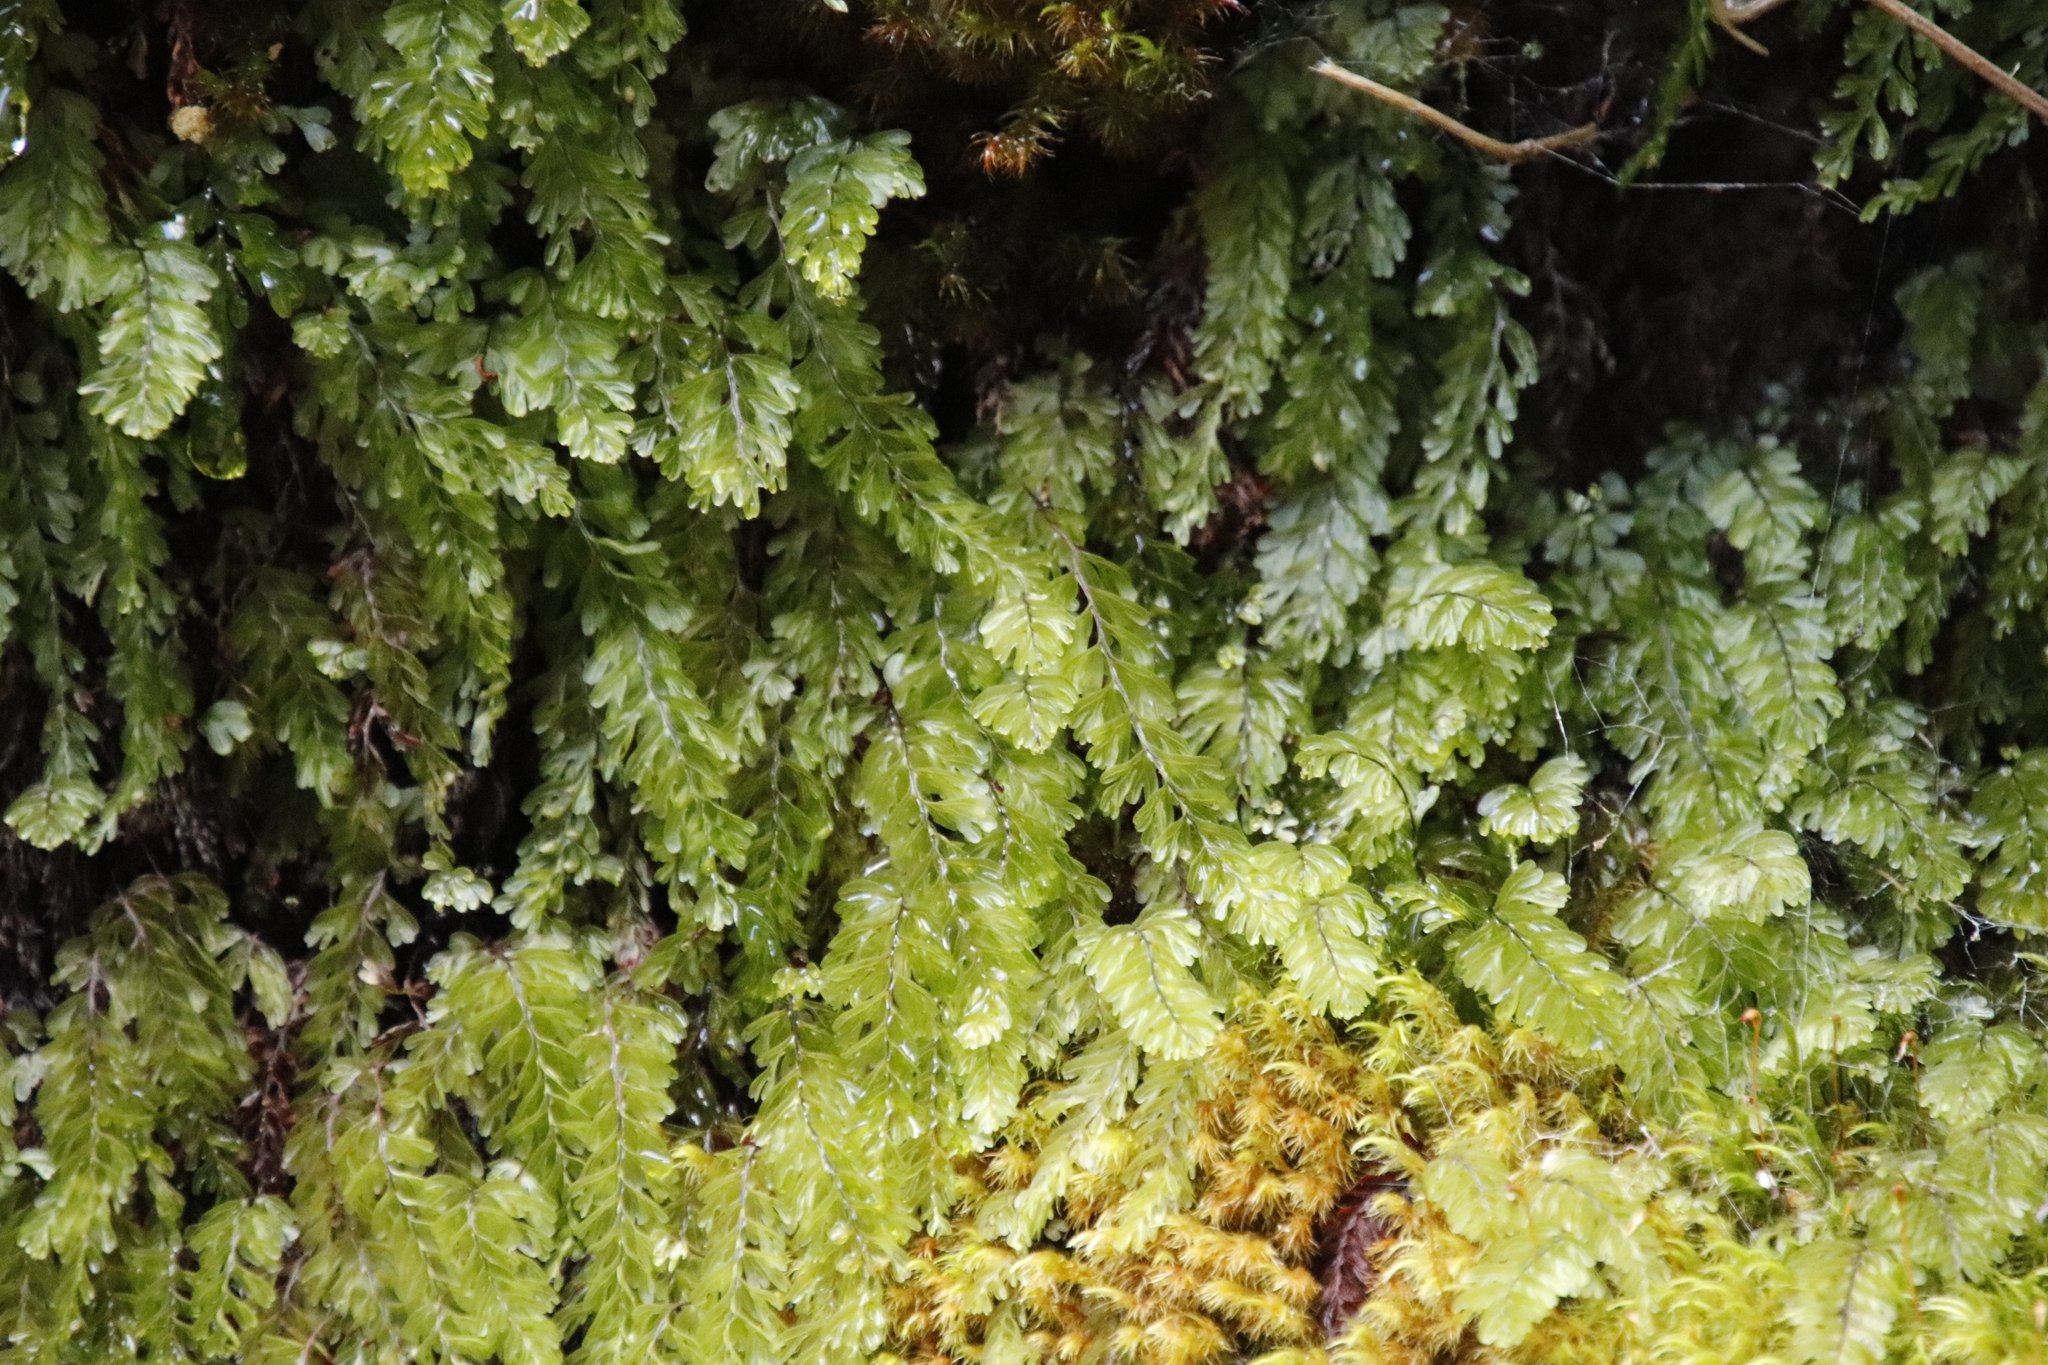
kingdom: Plantae
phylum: Tracheophyta
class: Polypodiopsida
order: Hymenophyllales
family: Hymenophyllaceae
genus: Hymenophyllum
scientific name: Hymenophyllum capense
